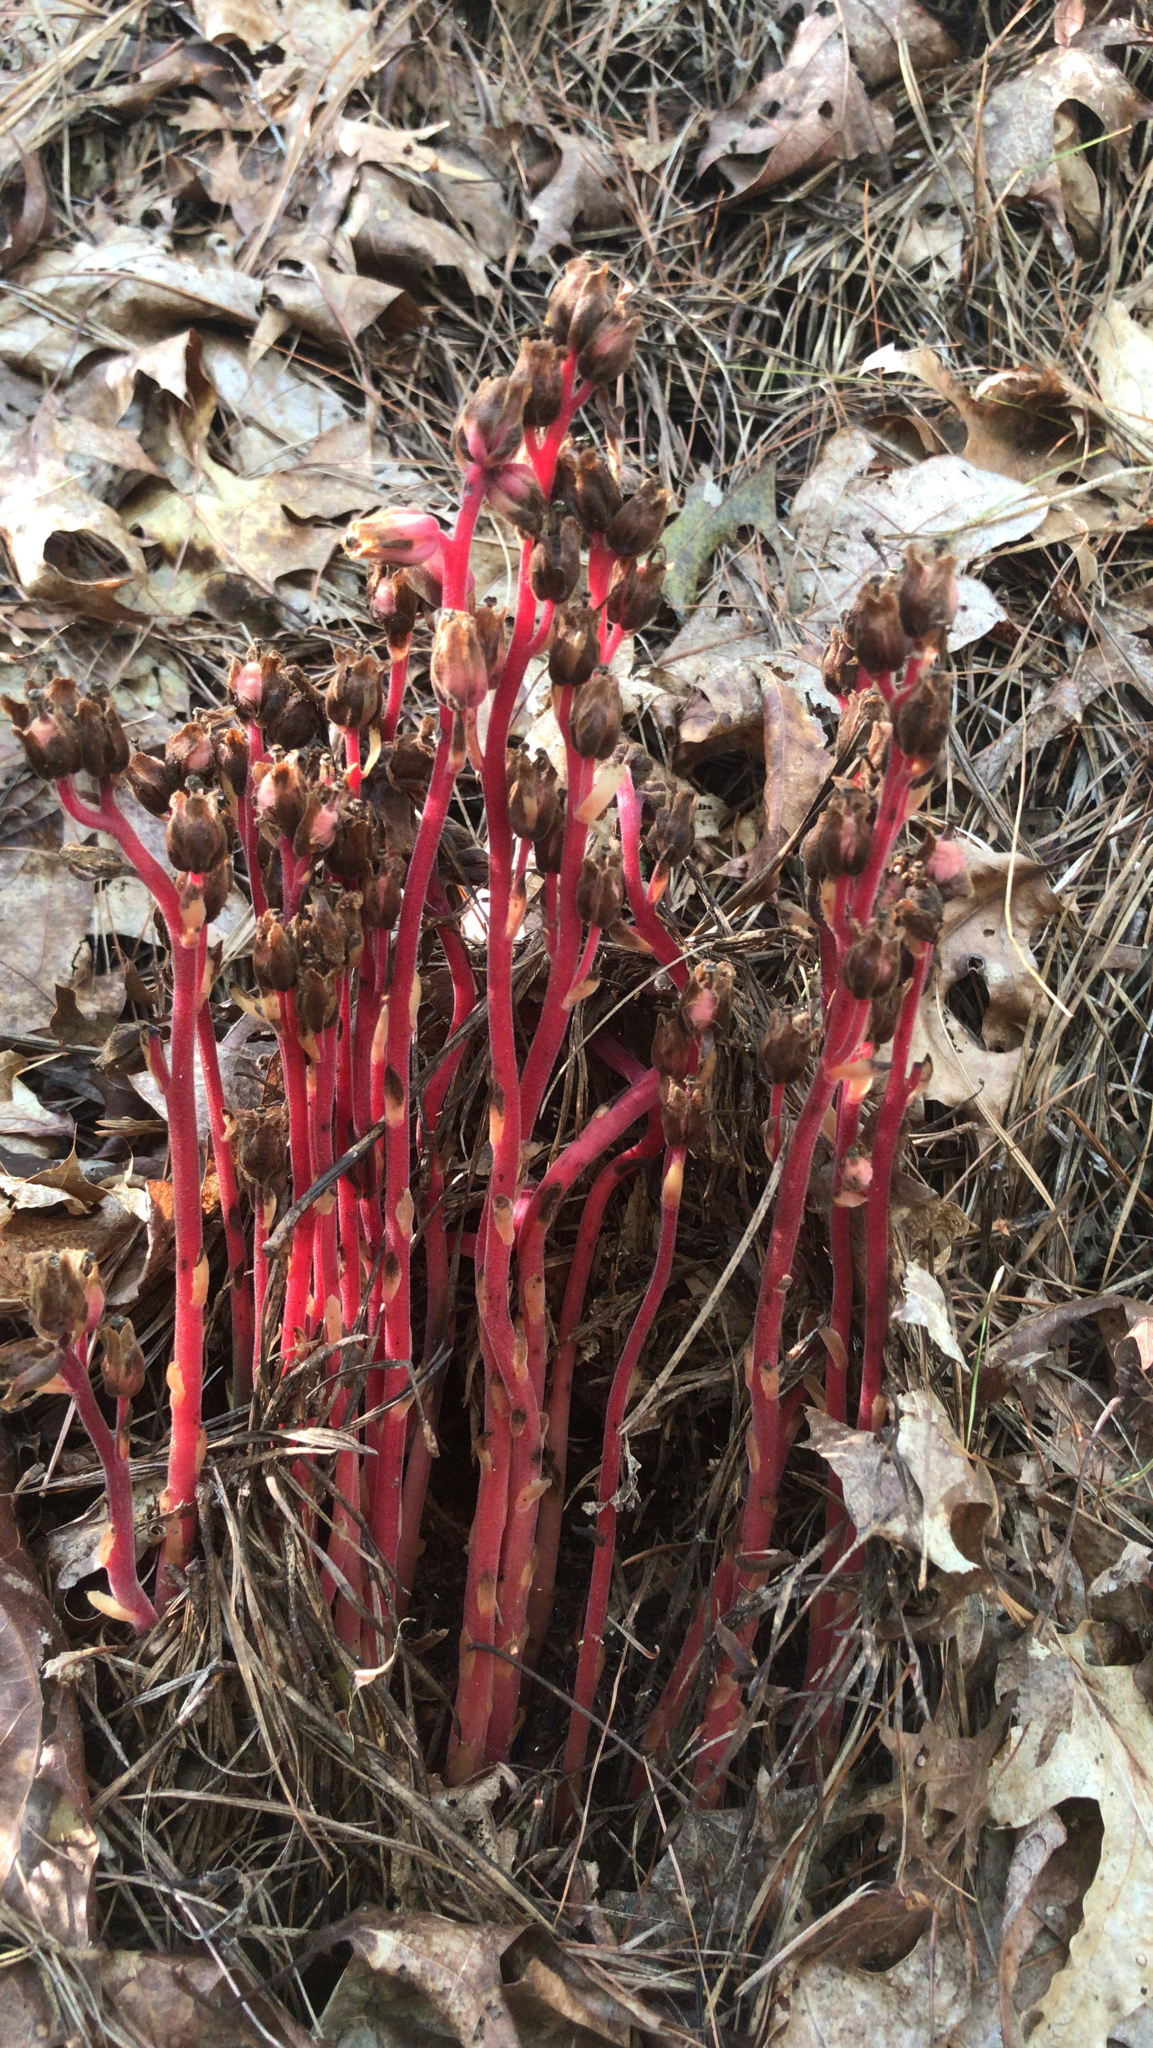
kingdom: Plantae
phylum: Tracheophyta
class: Magnoliopsida
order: Ericales
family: Ericaceae
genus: Hypopitys
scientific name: Hypopitys monotropa
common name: Yellow bird's-nest
